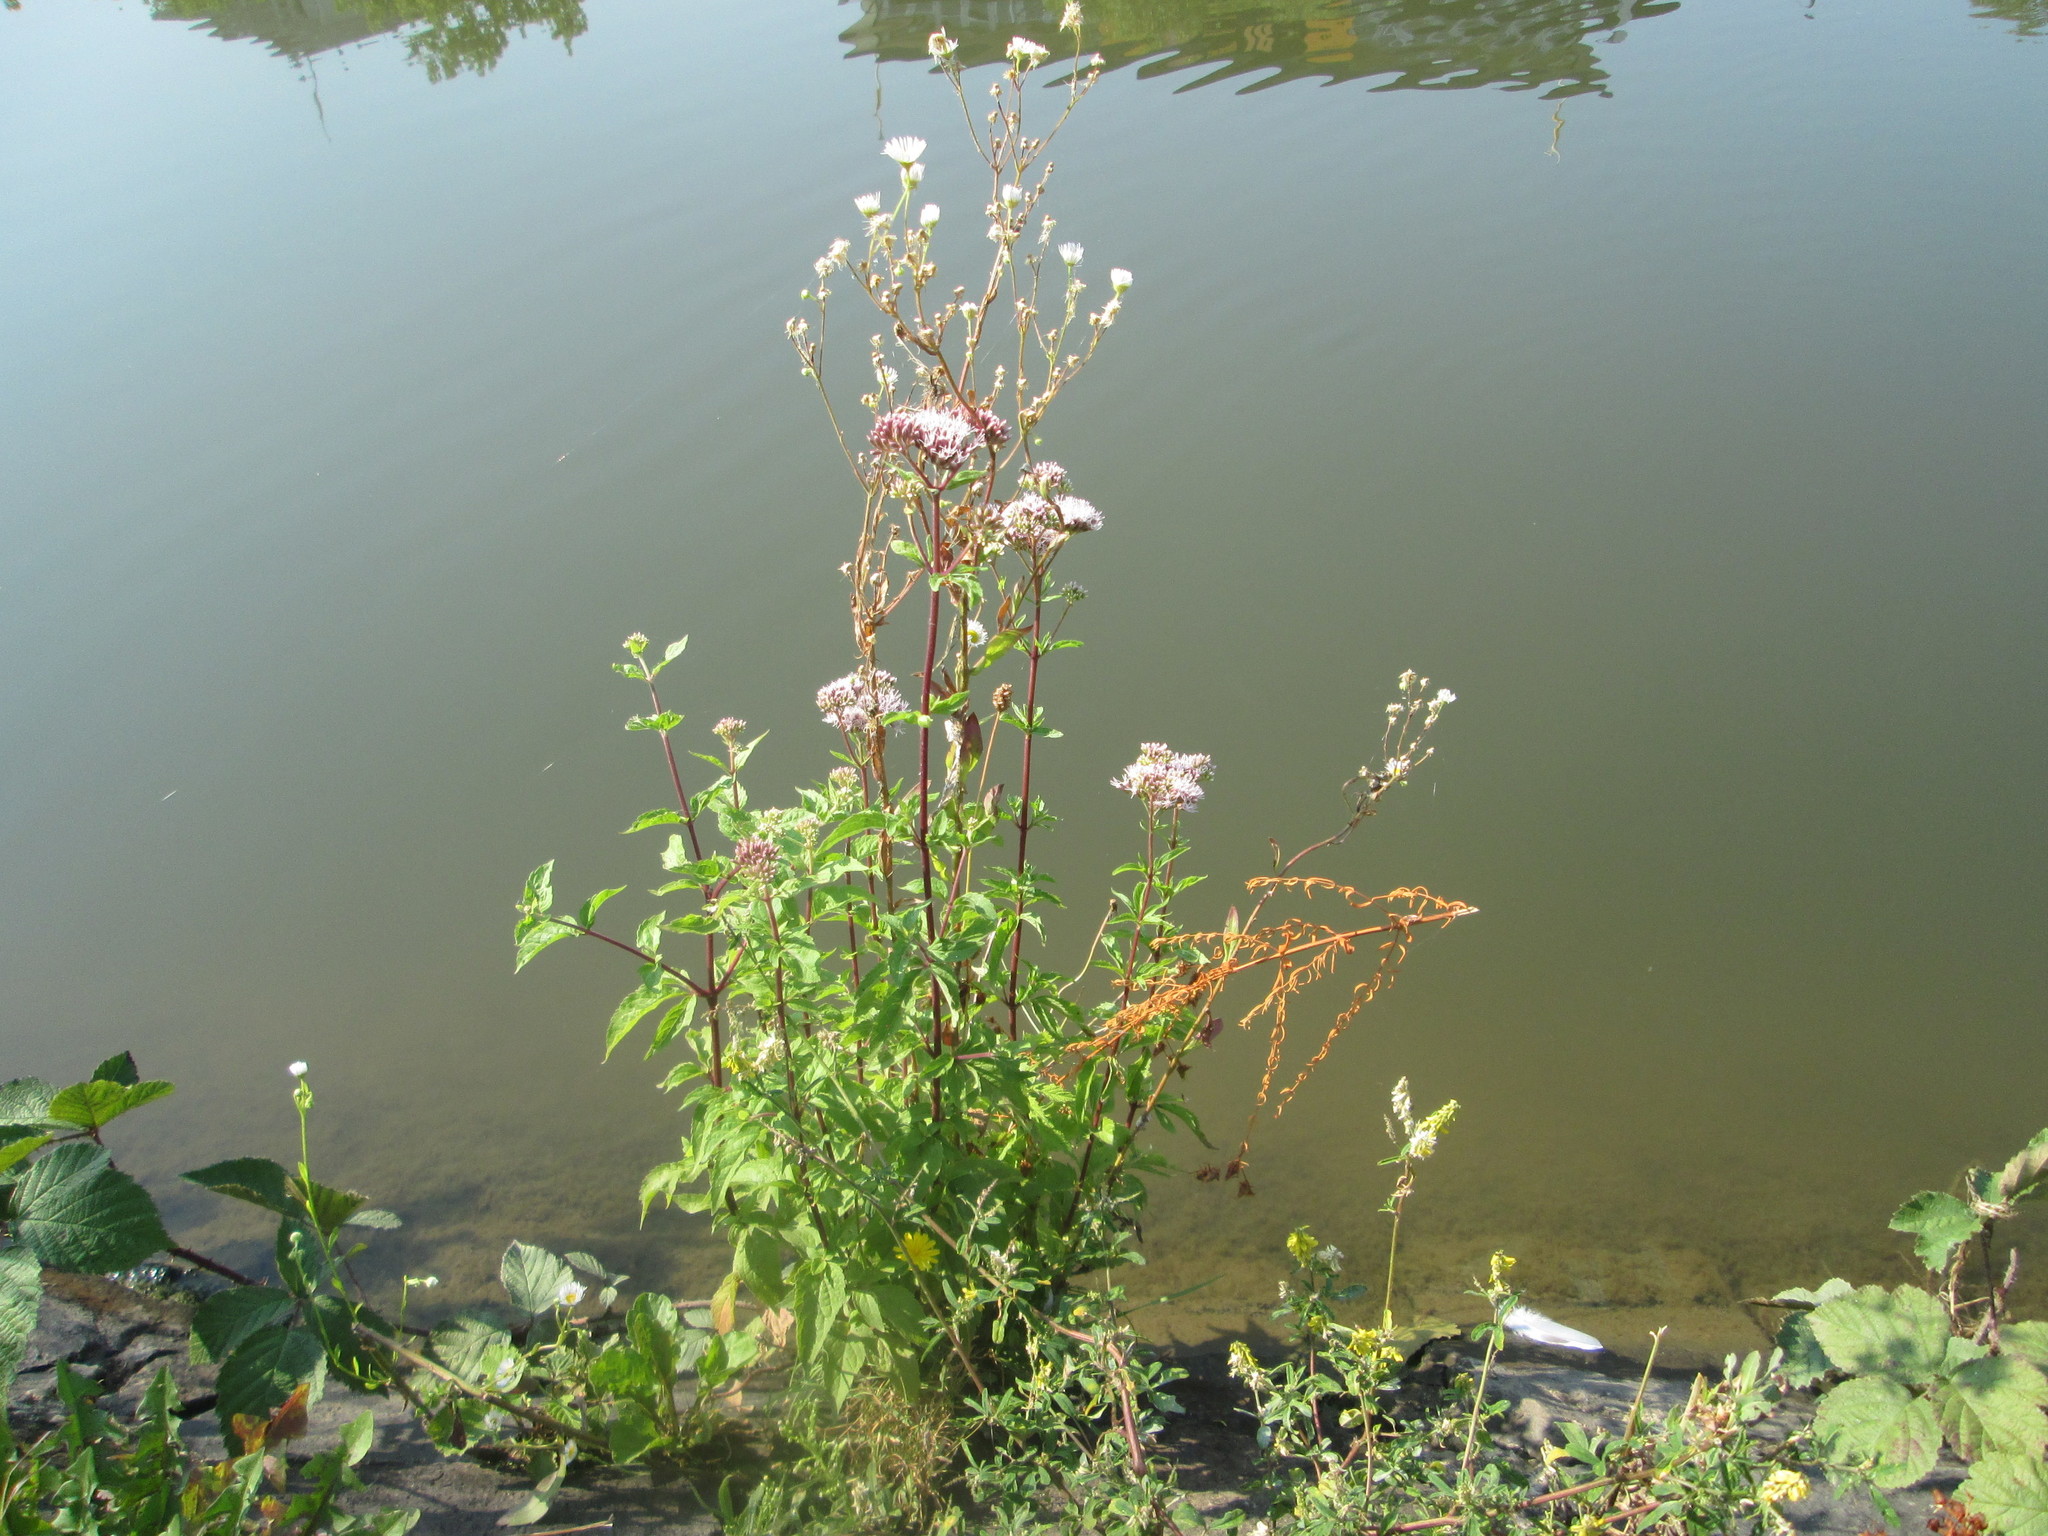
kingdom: Plantae
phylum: Tracheophyta
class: Magnoliopsida
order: Asterales
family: Asteraceae
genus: Eupatorium
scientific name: Eupatorium cannabinum
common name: Hemp-agrimony
